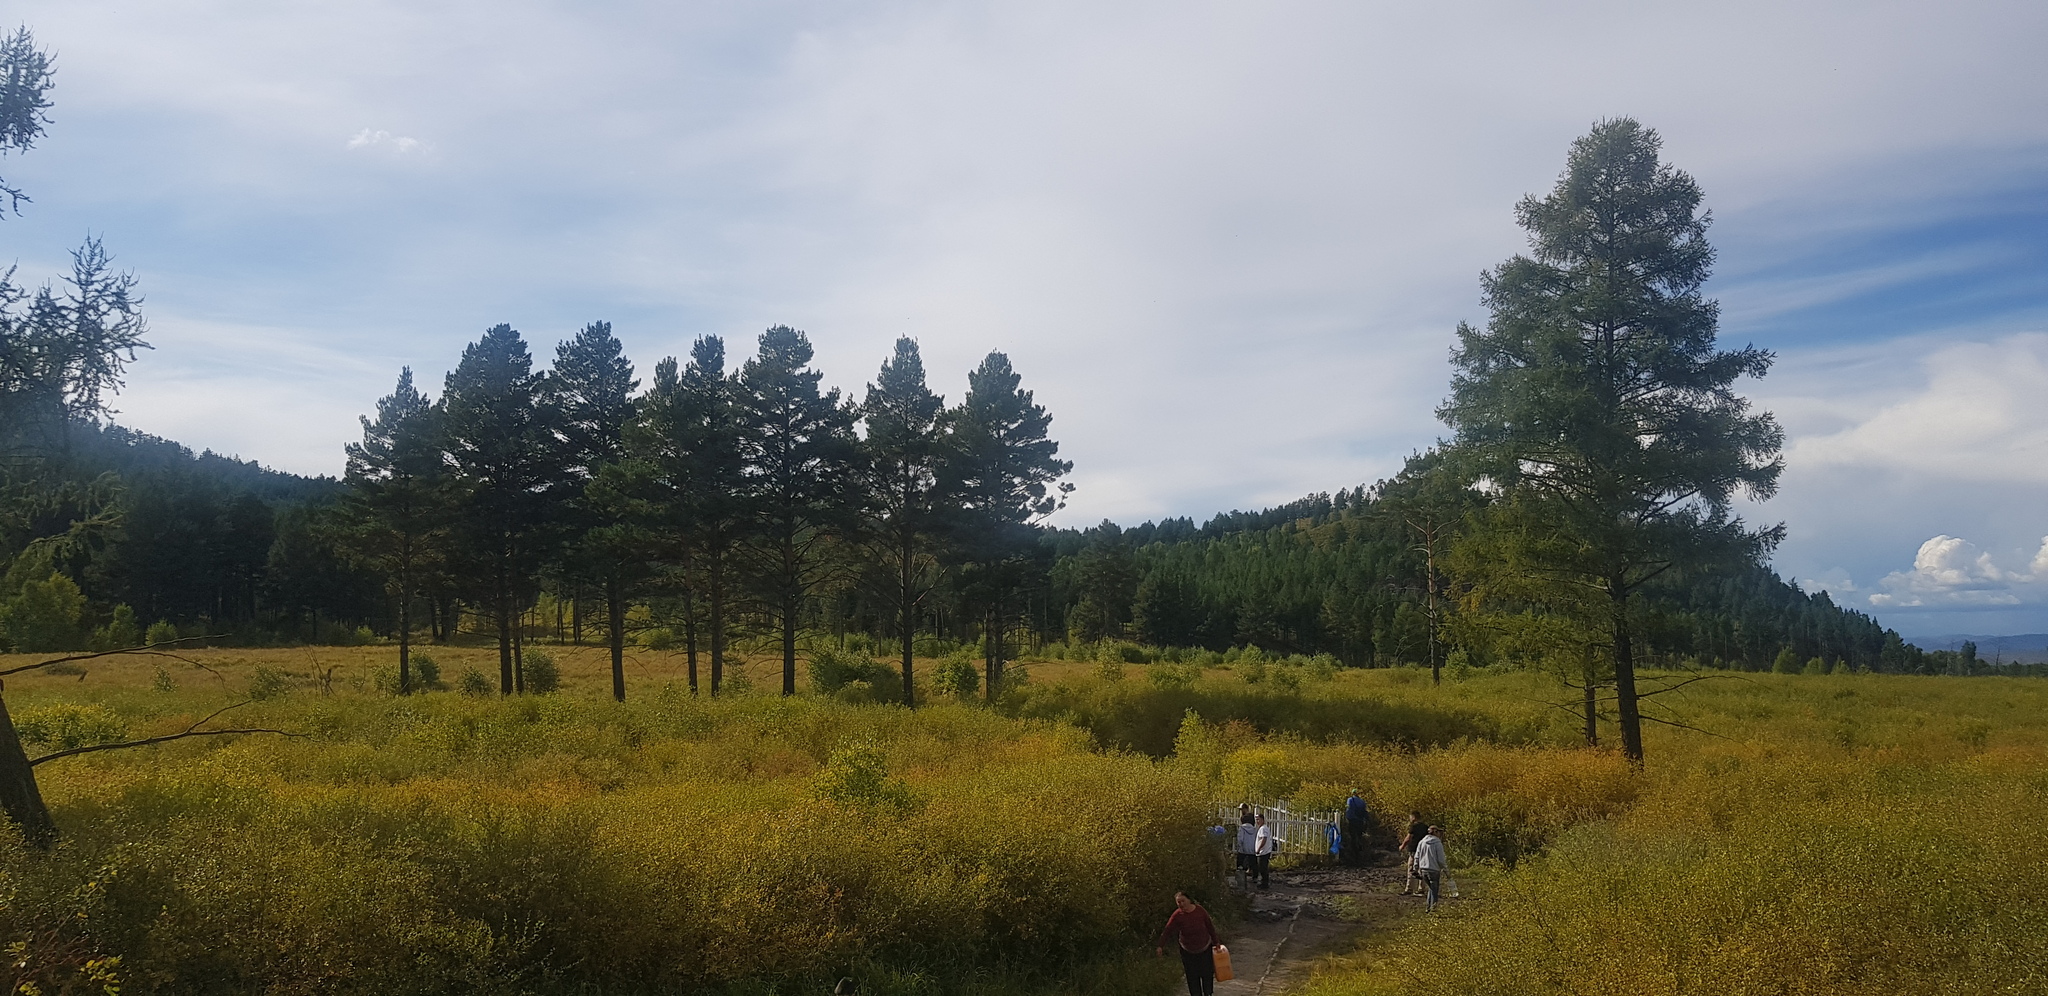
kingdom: Plantae
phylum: Tracheophyta
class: Pinopsida
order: Pinales
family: Pinaceae
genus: Pinus
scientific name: Pinus sylvestris
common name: Scots pine
